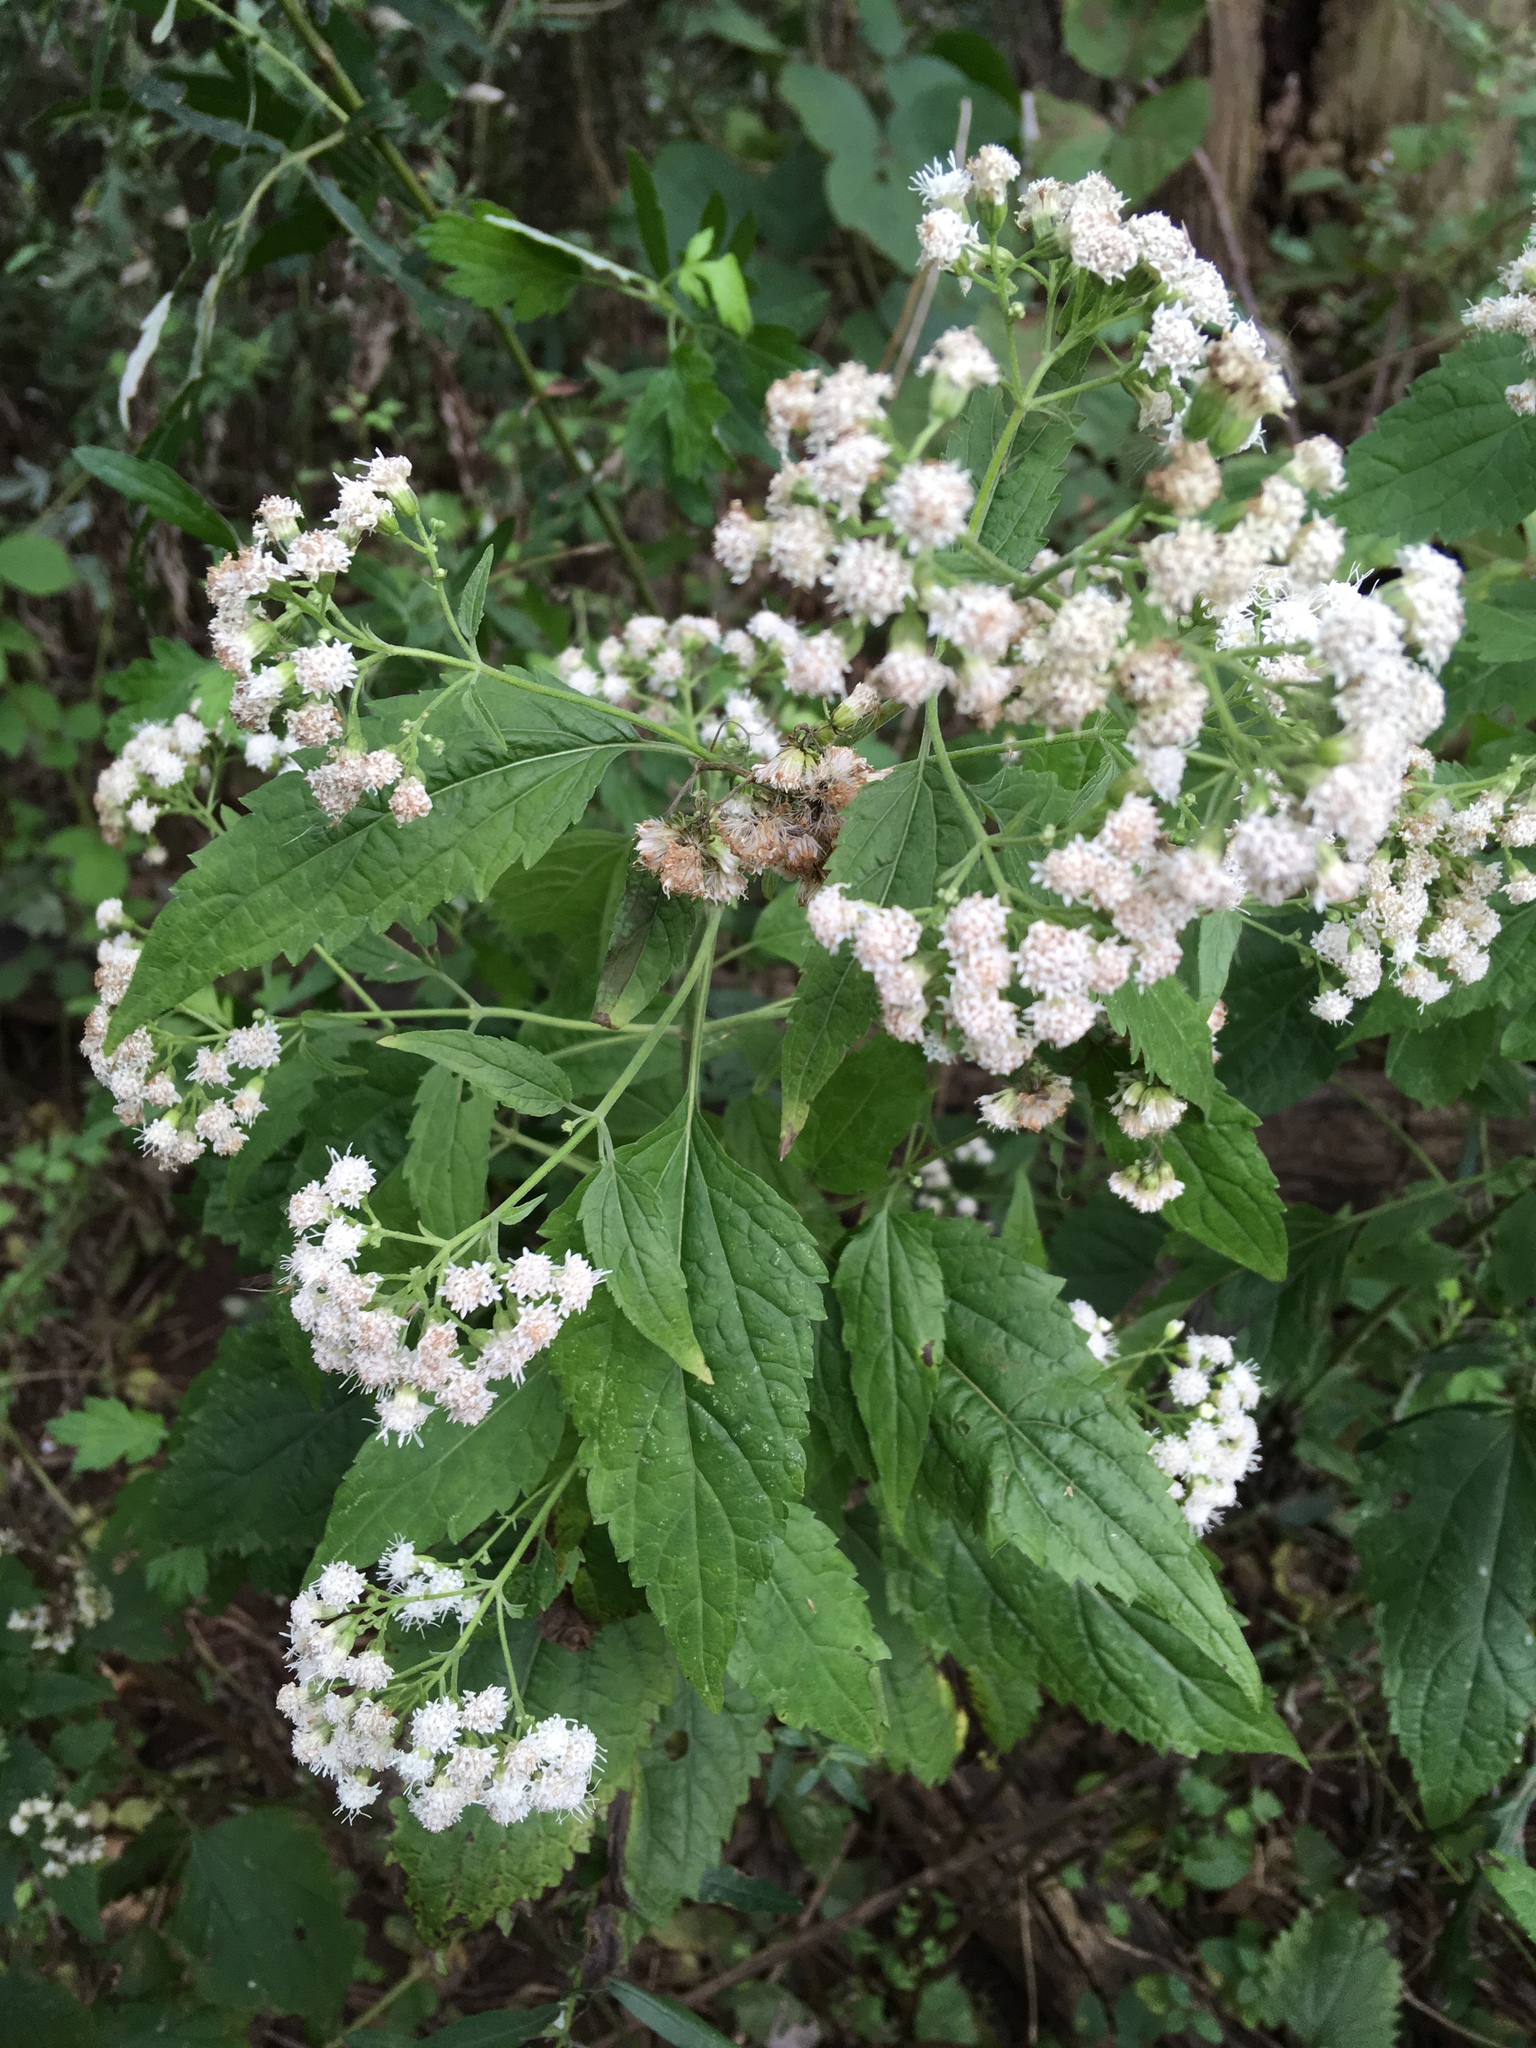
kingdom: Plantae
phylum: Tracheophyta
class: Magnoliopsida
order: Asterales
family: Asteraceae
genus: Ageratina
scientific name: Ageratina altissima
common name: White snakeroot
